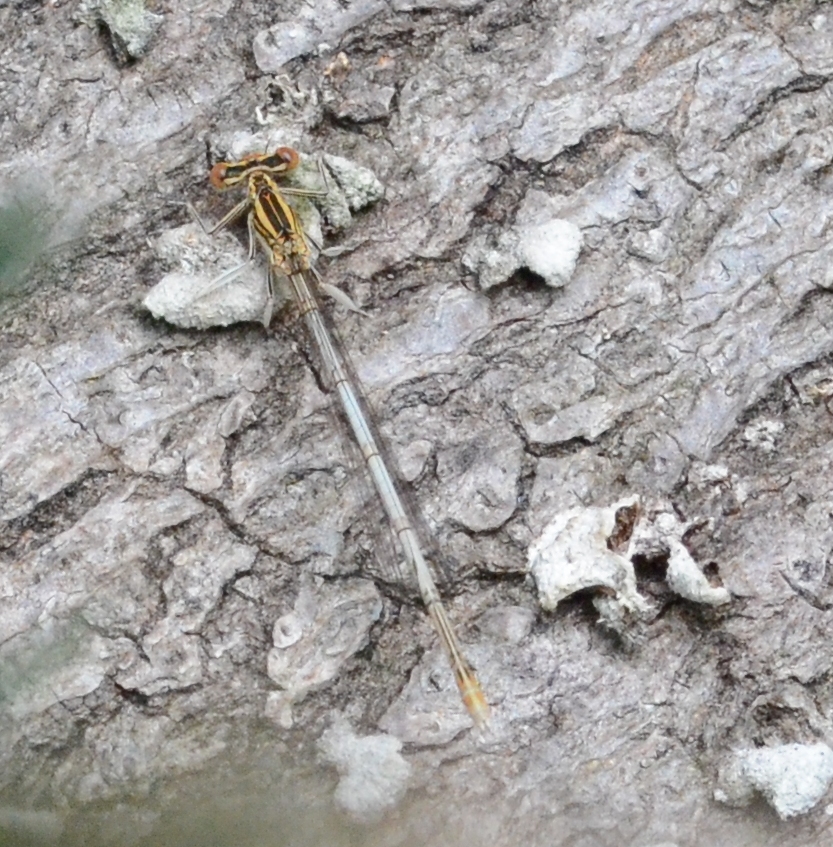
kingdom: Animalia
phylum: Arthropoda
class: Insecta
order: Odonata
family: Platycnemididae
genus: Platycnemis
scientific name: Platycnemis pennipes
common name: White-legged damselfly
